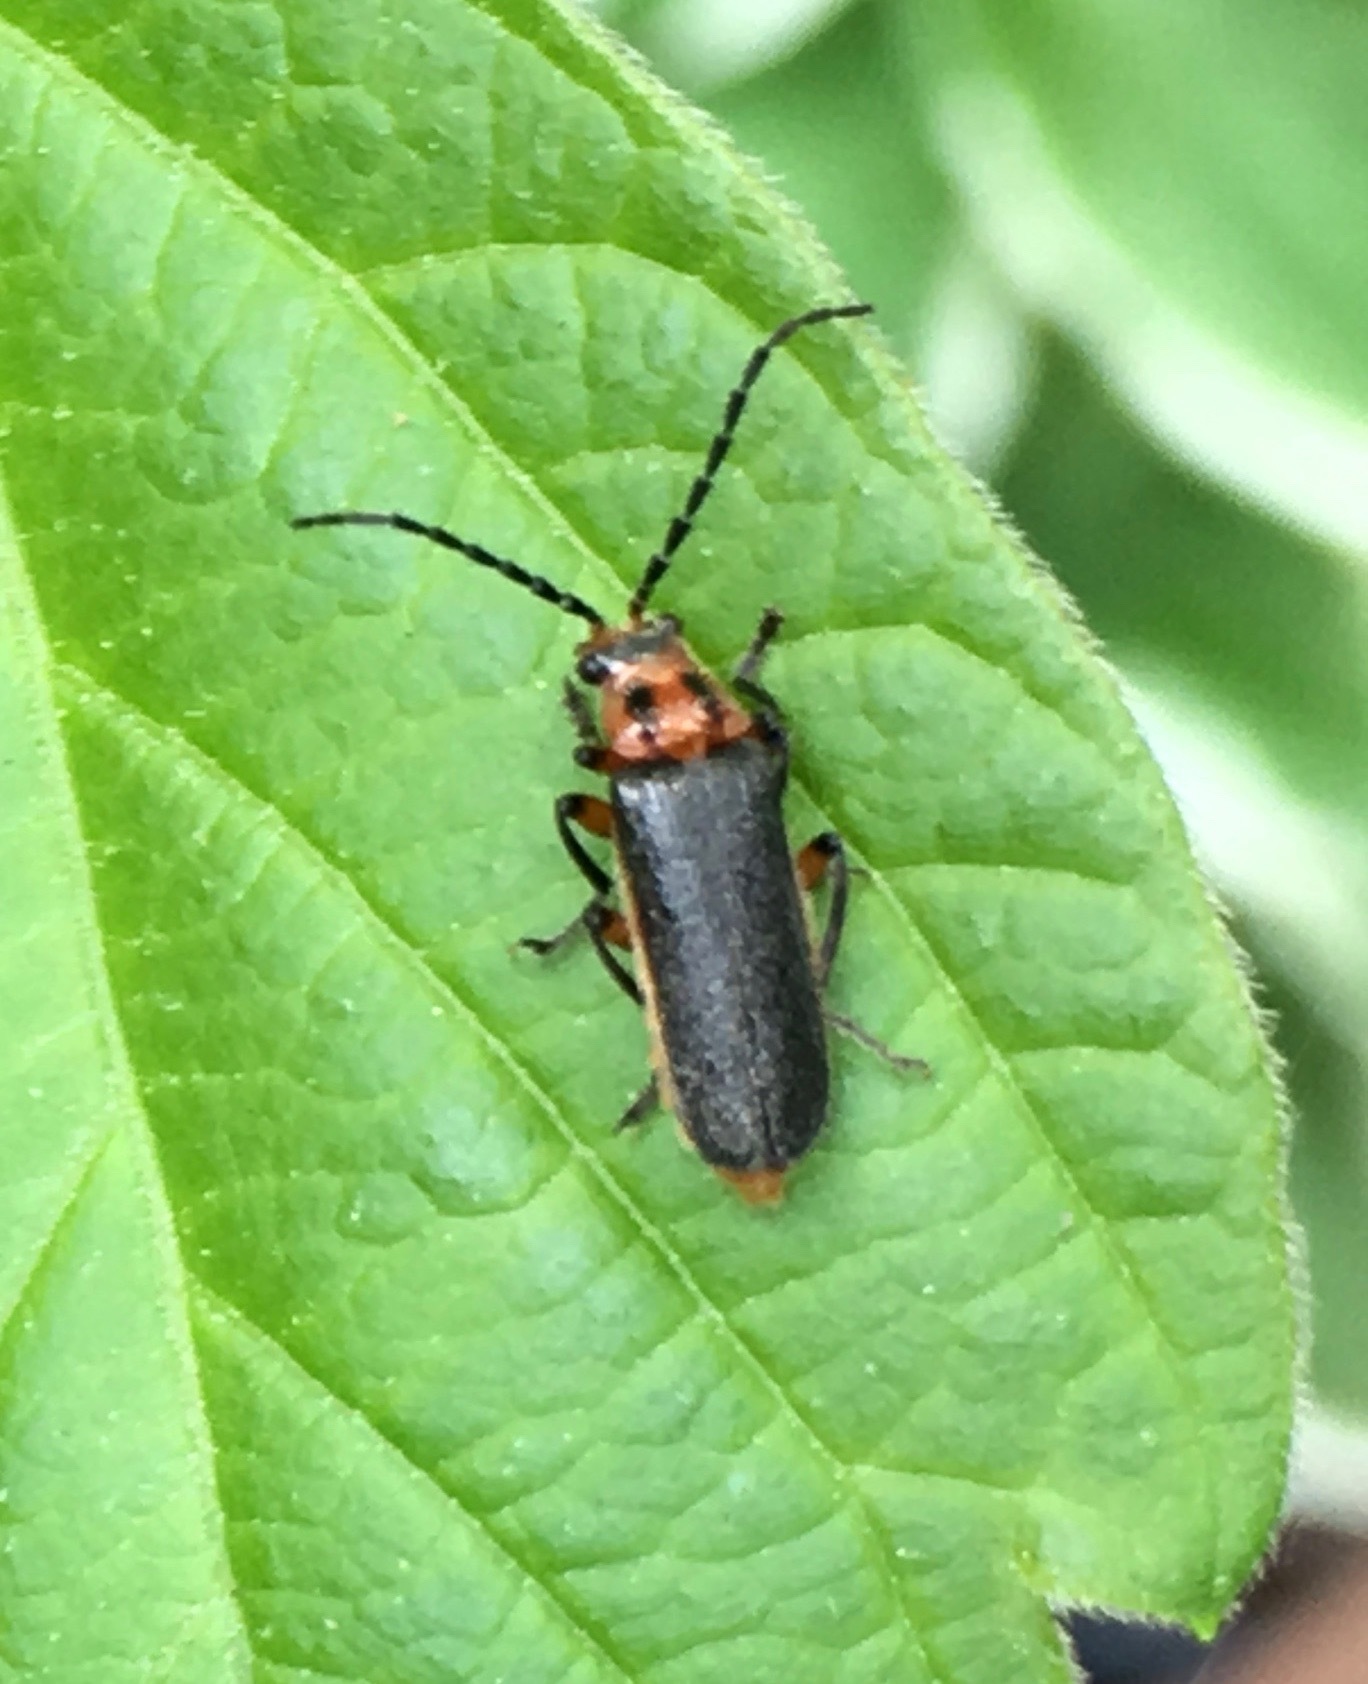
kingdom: Animalia
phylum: Arthropoda
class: Insecta
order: Coleoptera
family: Cantharidae
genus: Atalantycha
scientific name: Atalantycha bilineata
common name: Two-lined leatherwing
